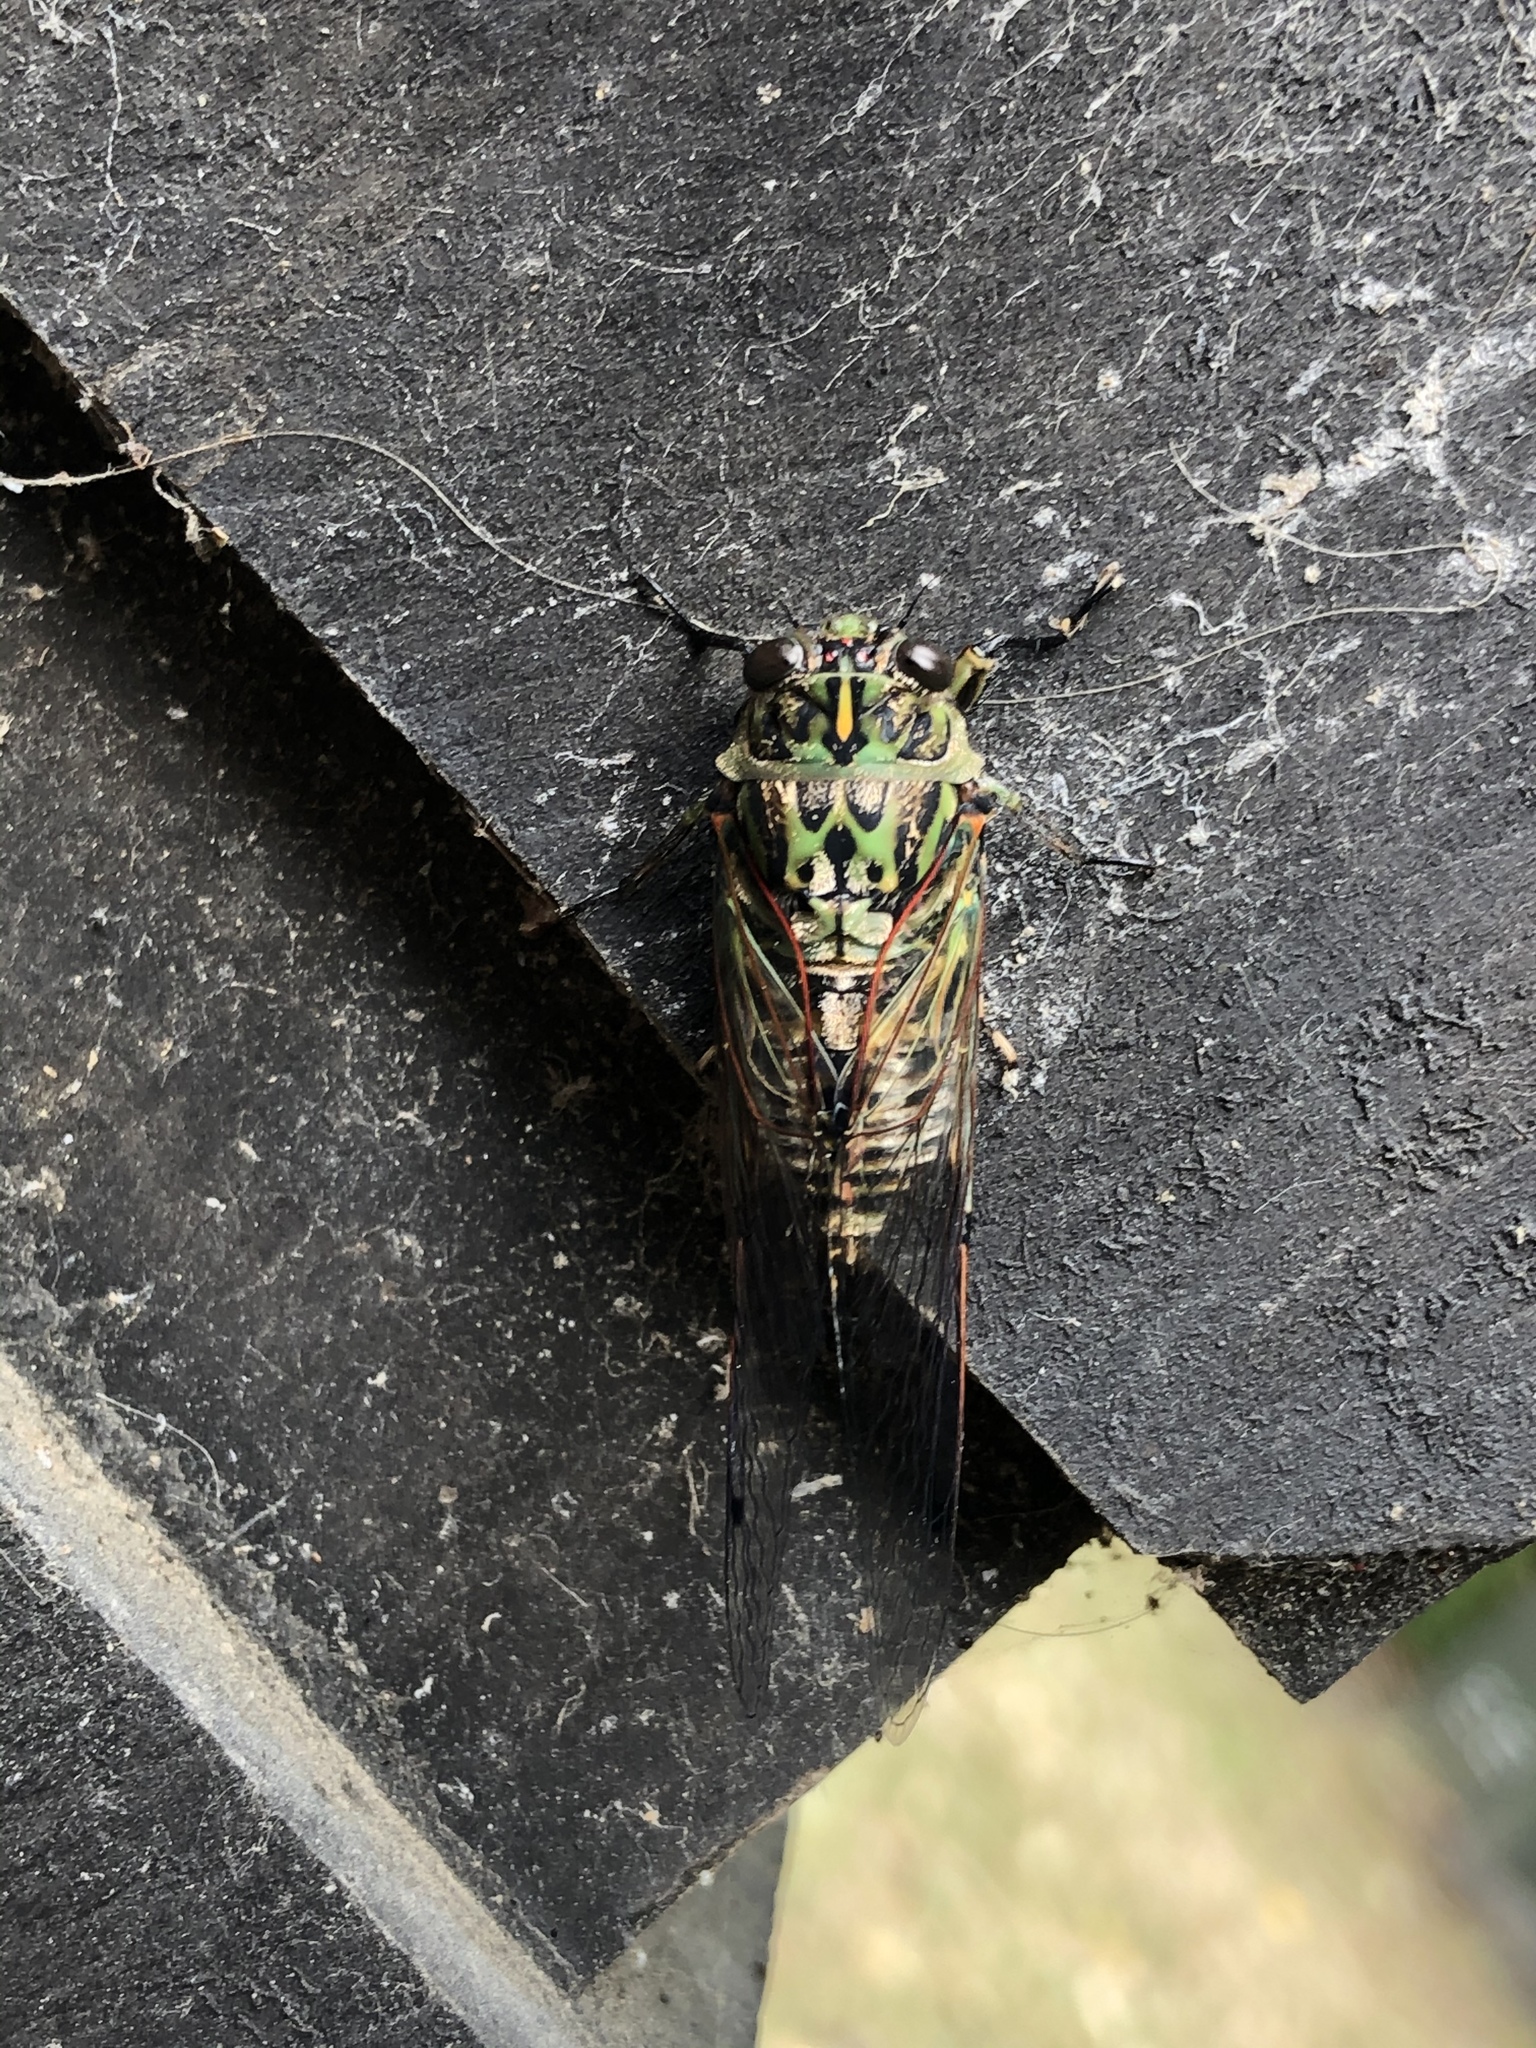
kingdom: Animalia
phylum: Arthropoda
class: Insecta
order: Hemiptera
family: Cicadidae
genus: Amphipsalta
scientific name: Amphipsalta zelandica
